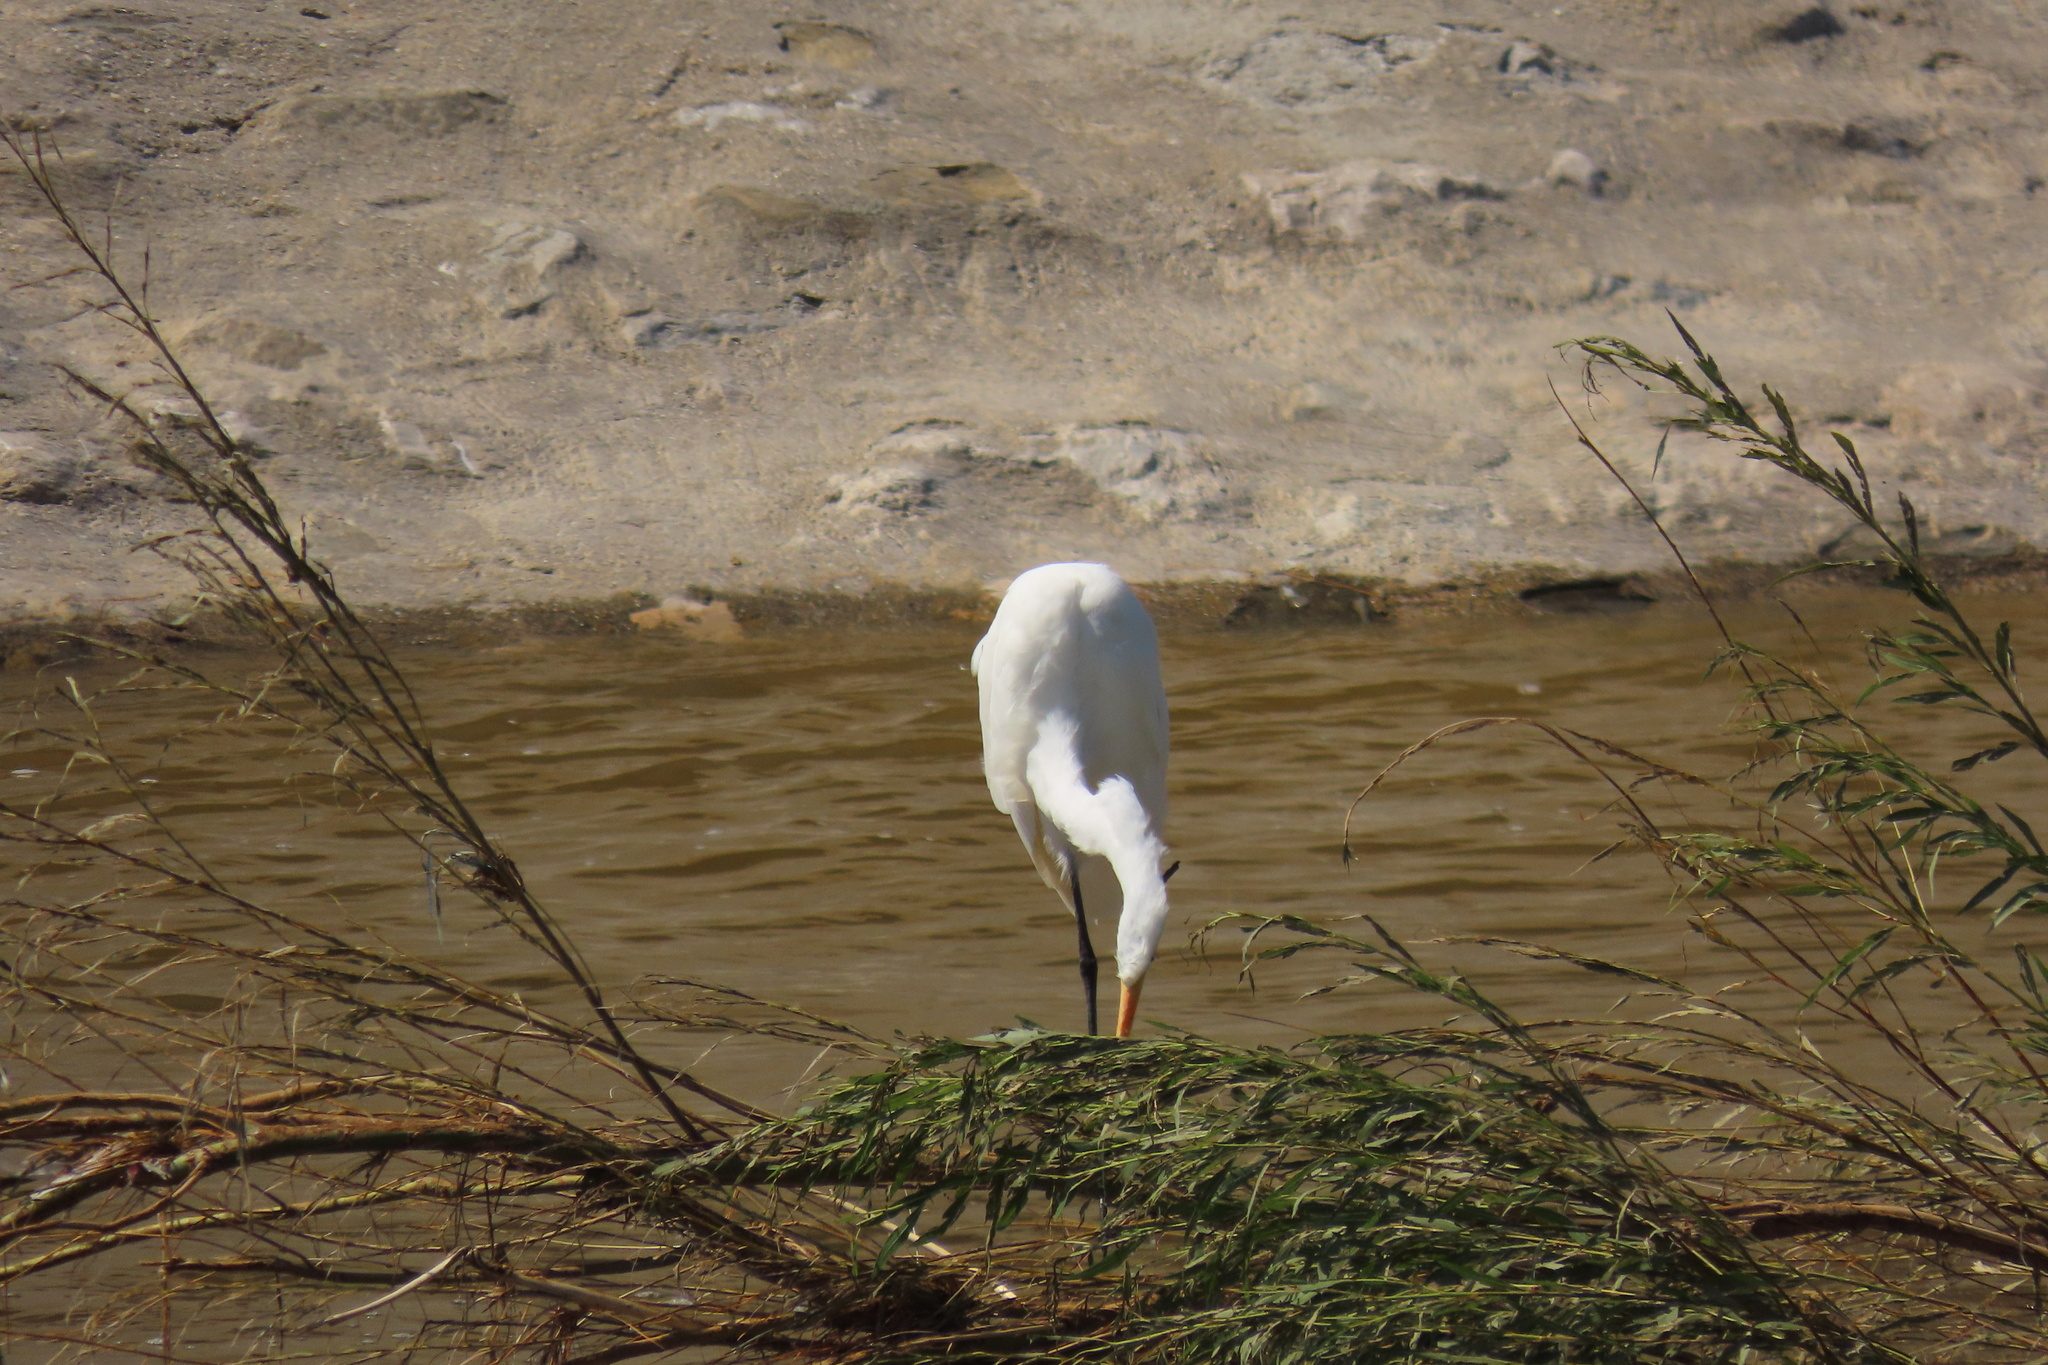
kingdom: Animalia
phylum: Chordata
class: Aves
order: Pelecaniformes
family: Ardeidae
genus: Ardea
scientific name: Ardea alba
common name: Great egret
